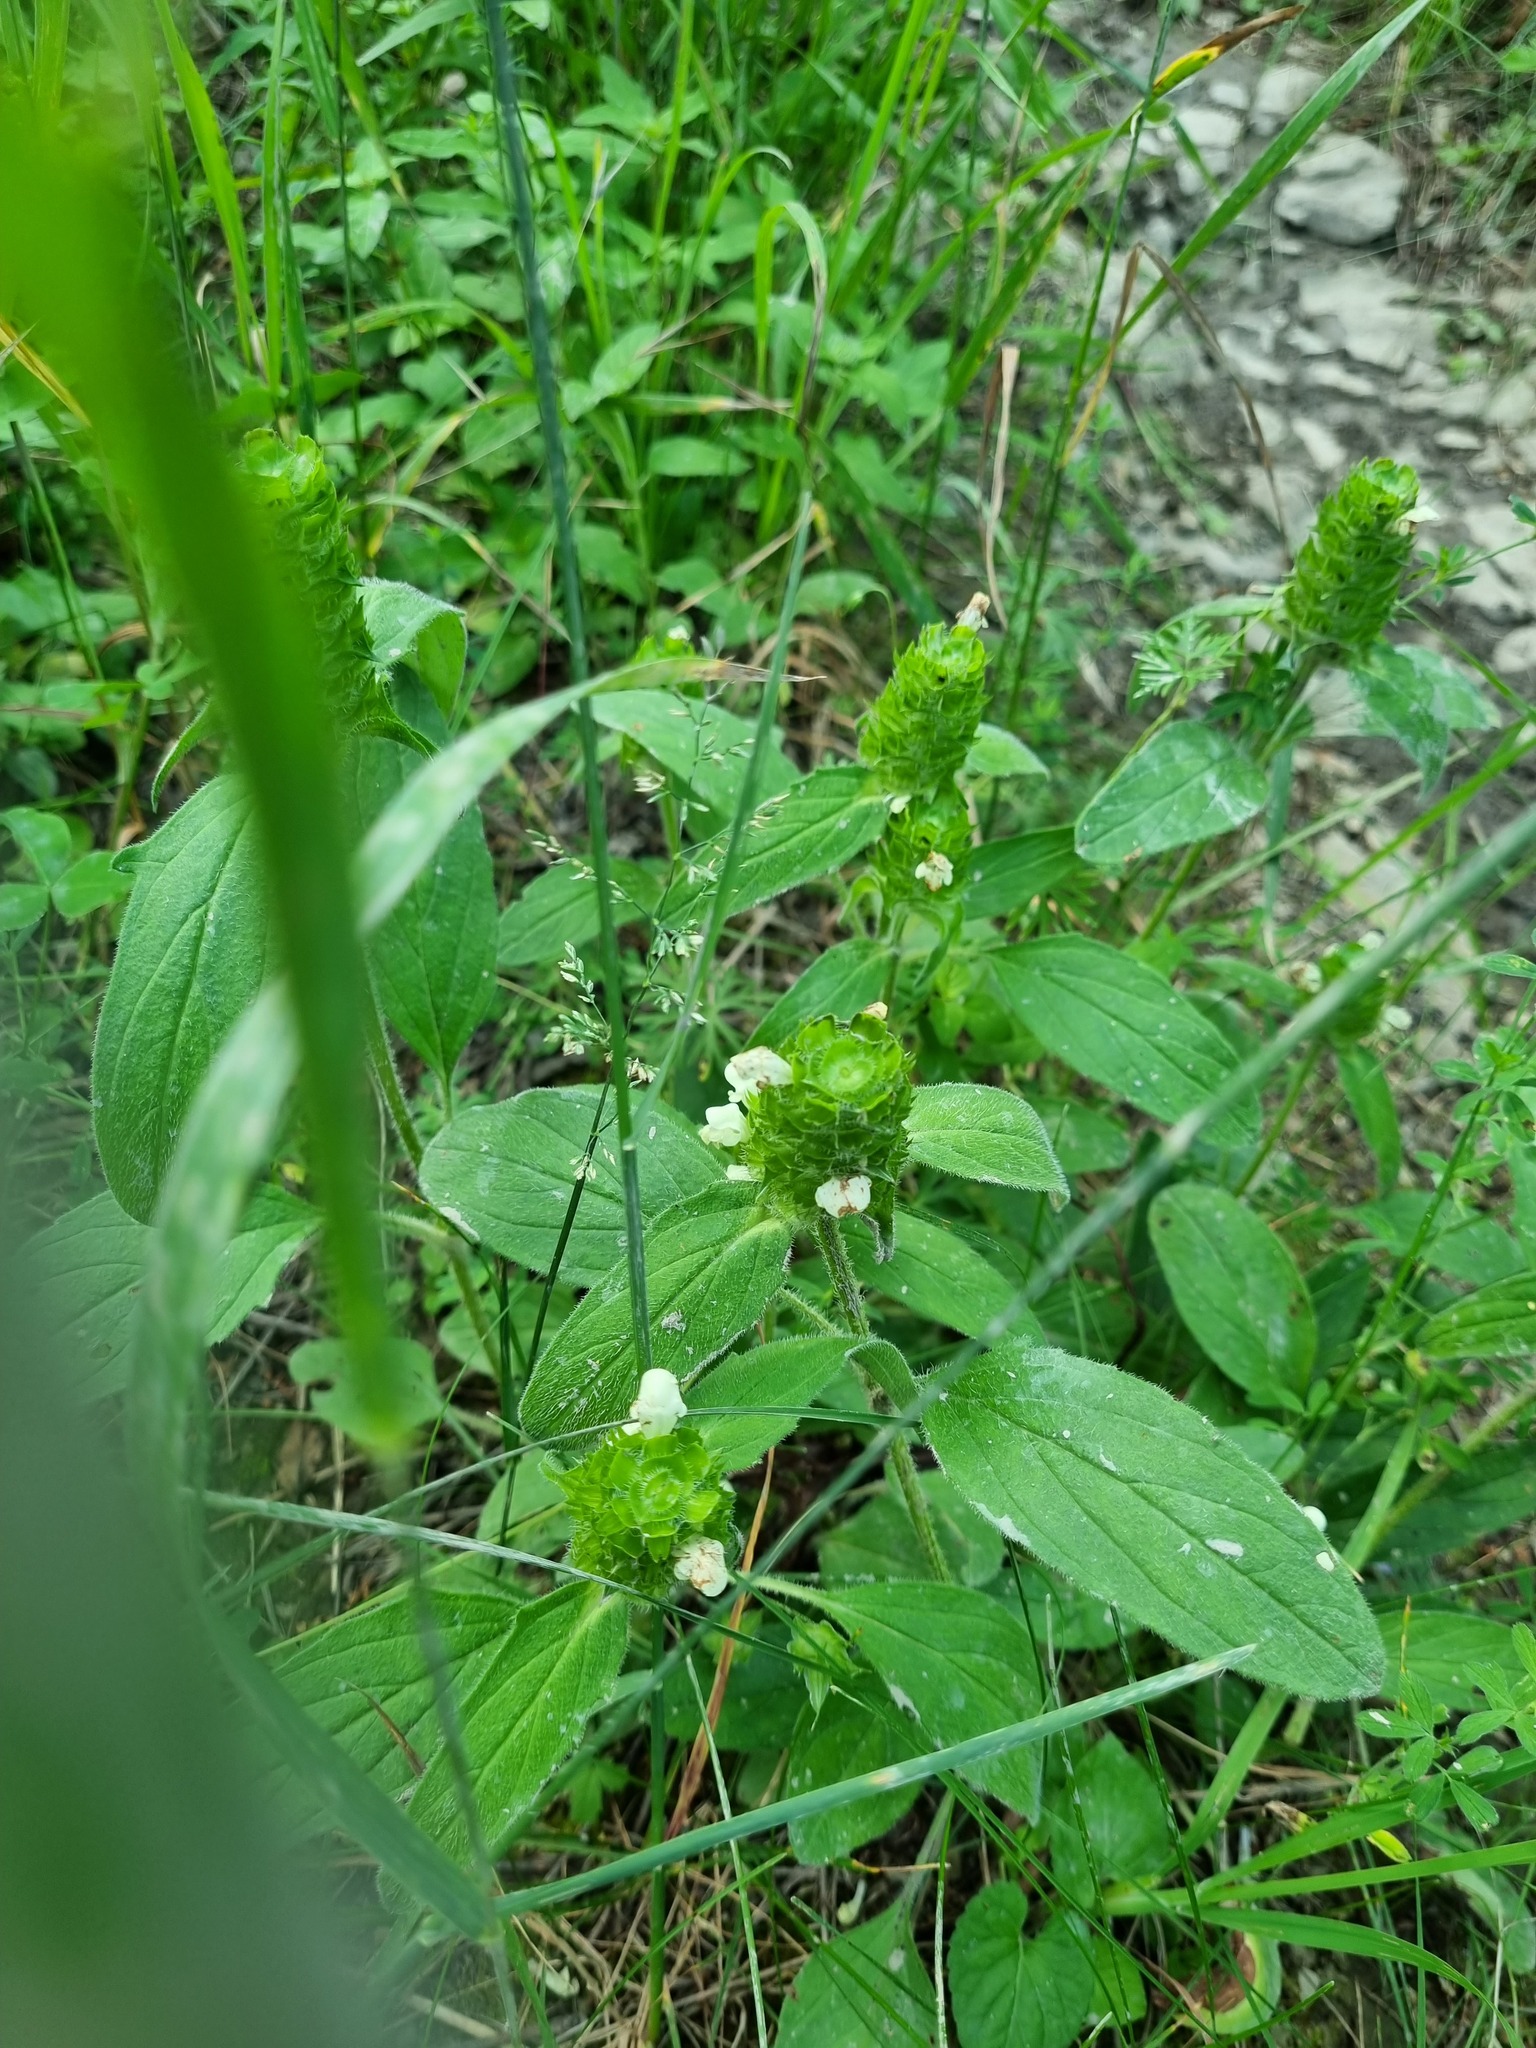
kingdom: Plantae
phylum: Tracheophyta
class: Magnoliopsida
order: Lamiales
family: Lamiaceae
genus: Prunella
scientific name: Prunella laciniata
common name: Cut-leaved selfheal
